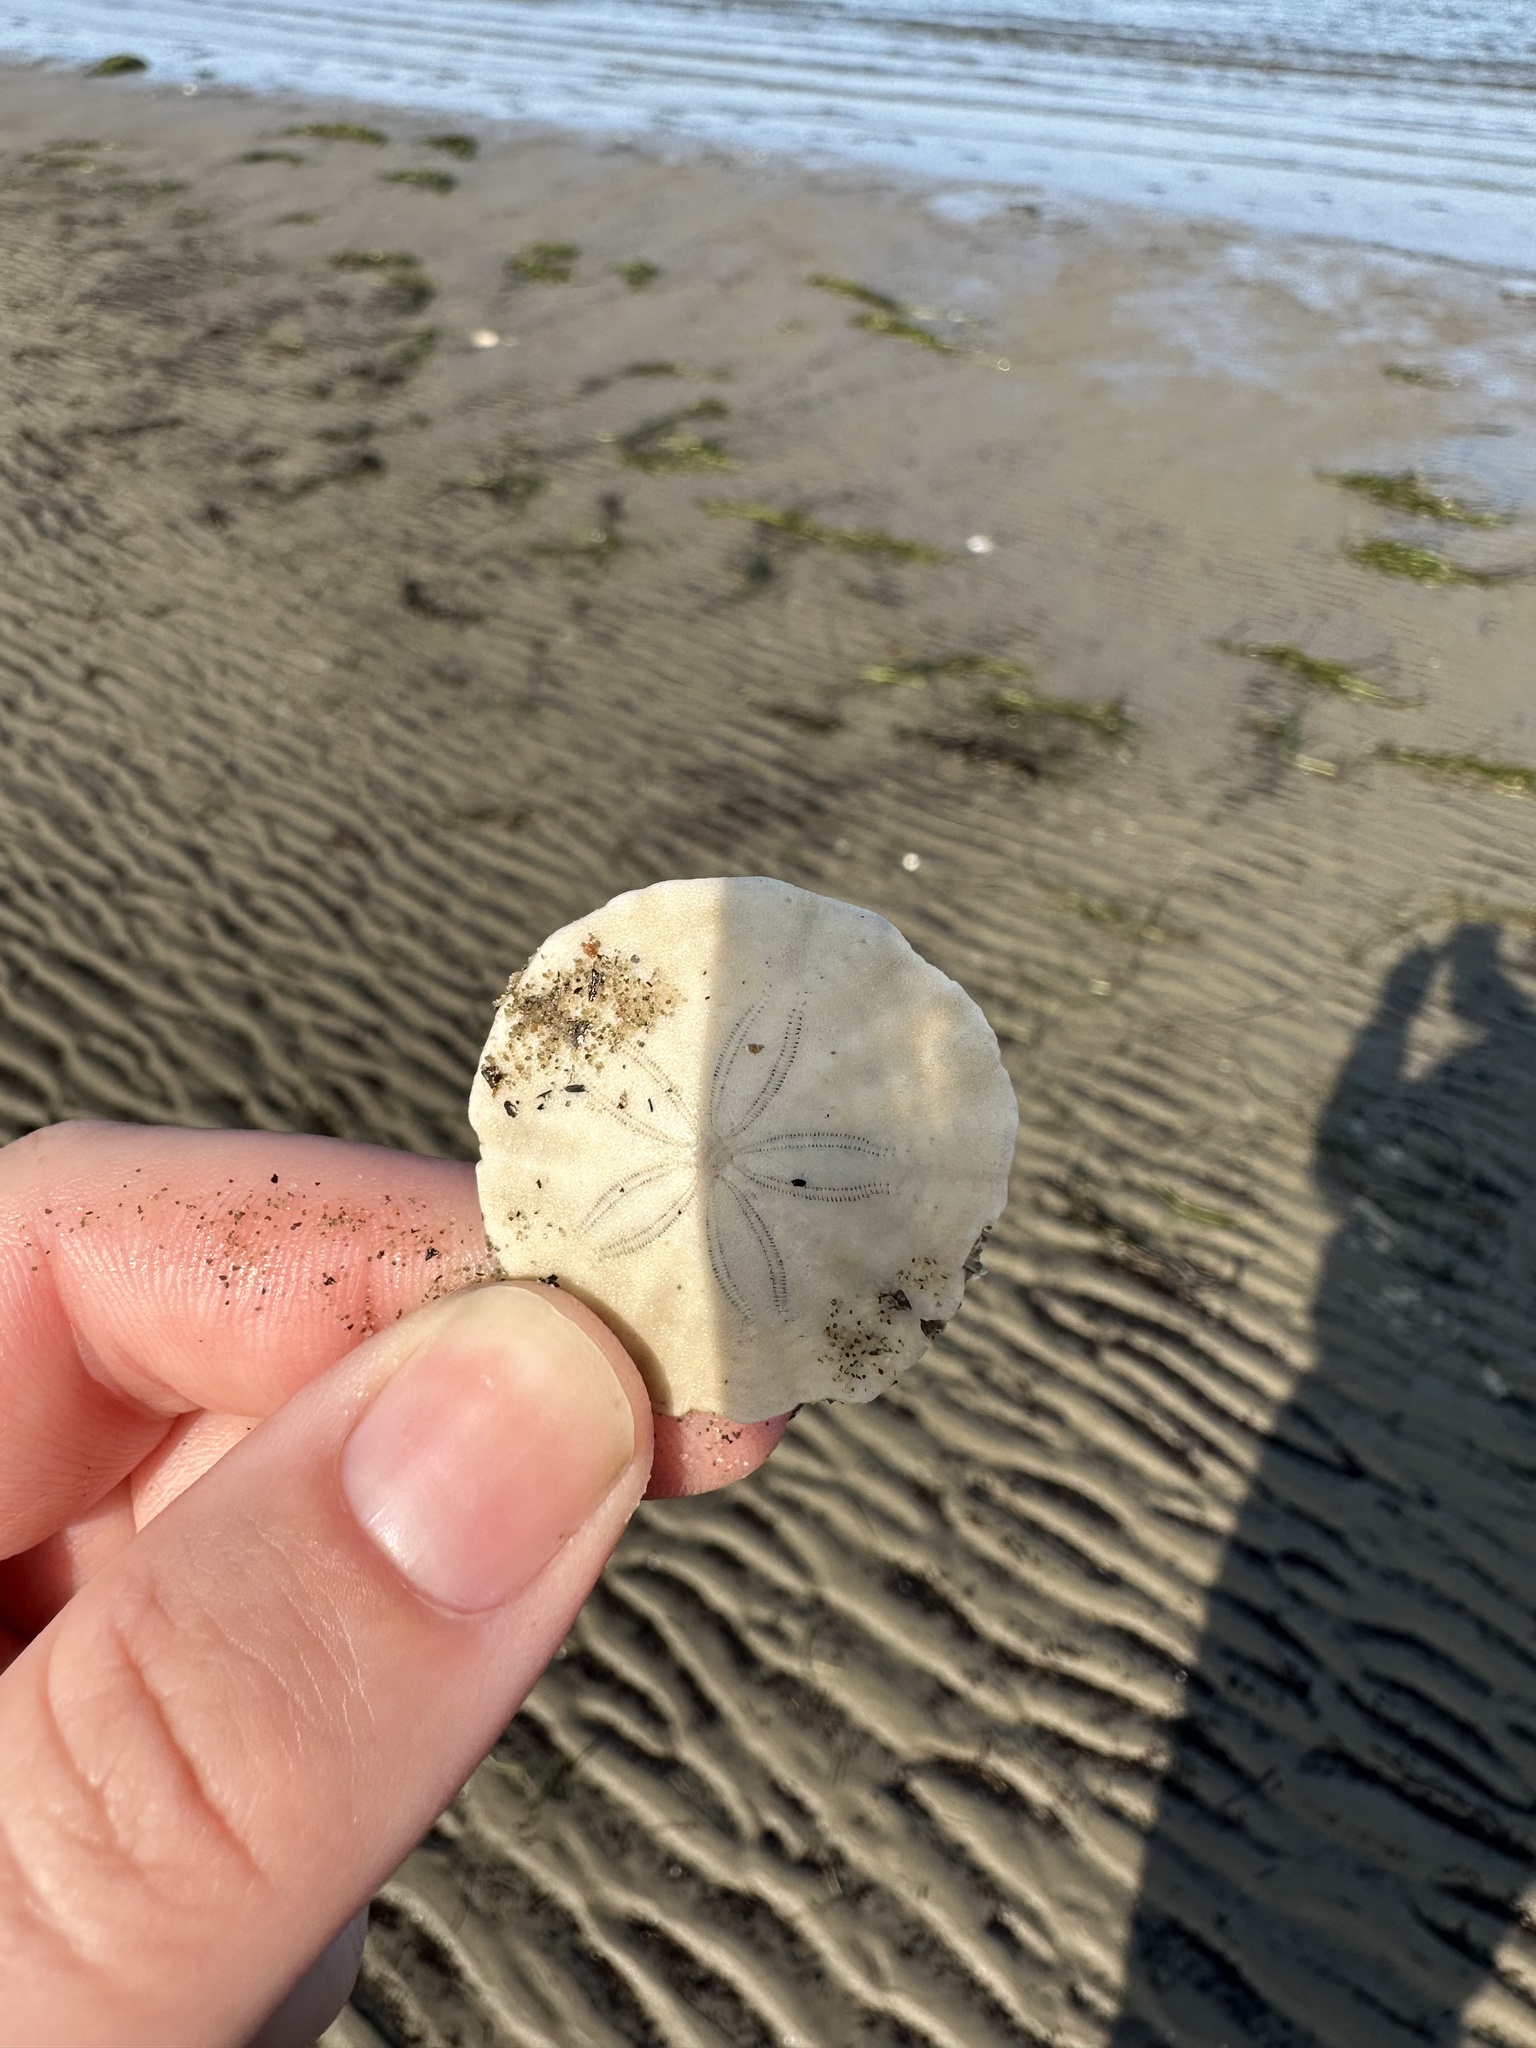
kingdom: Animalia
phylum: Echinodermata
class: Echinoidea
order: Echinolampadacea
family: Echinarachniidae
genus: Echinarachnius
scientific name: Echinarachnius parma
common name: Common sand dollar
